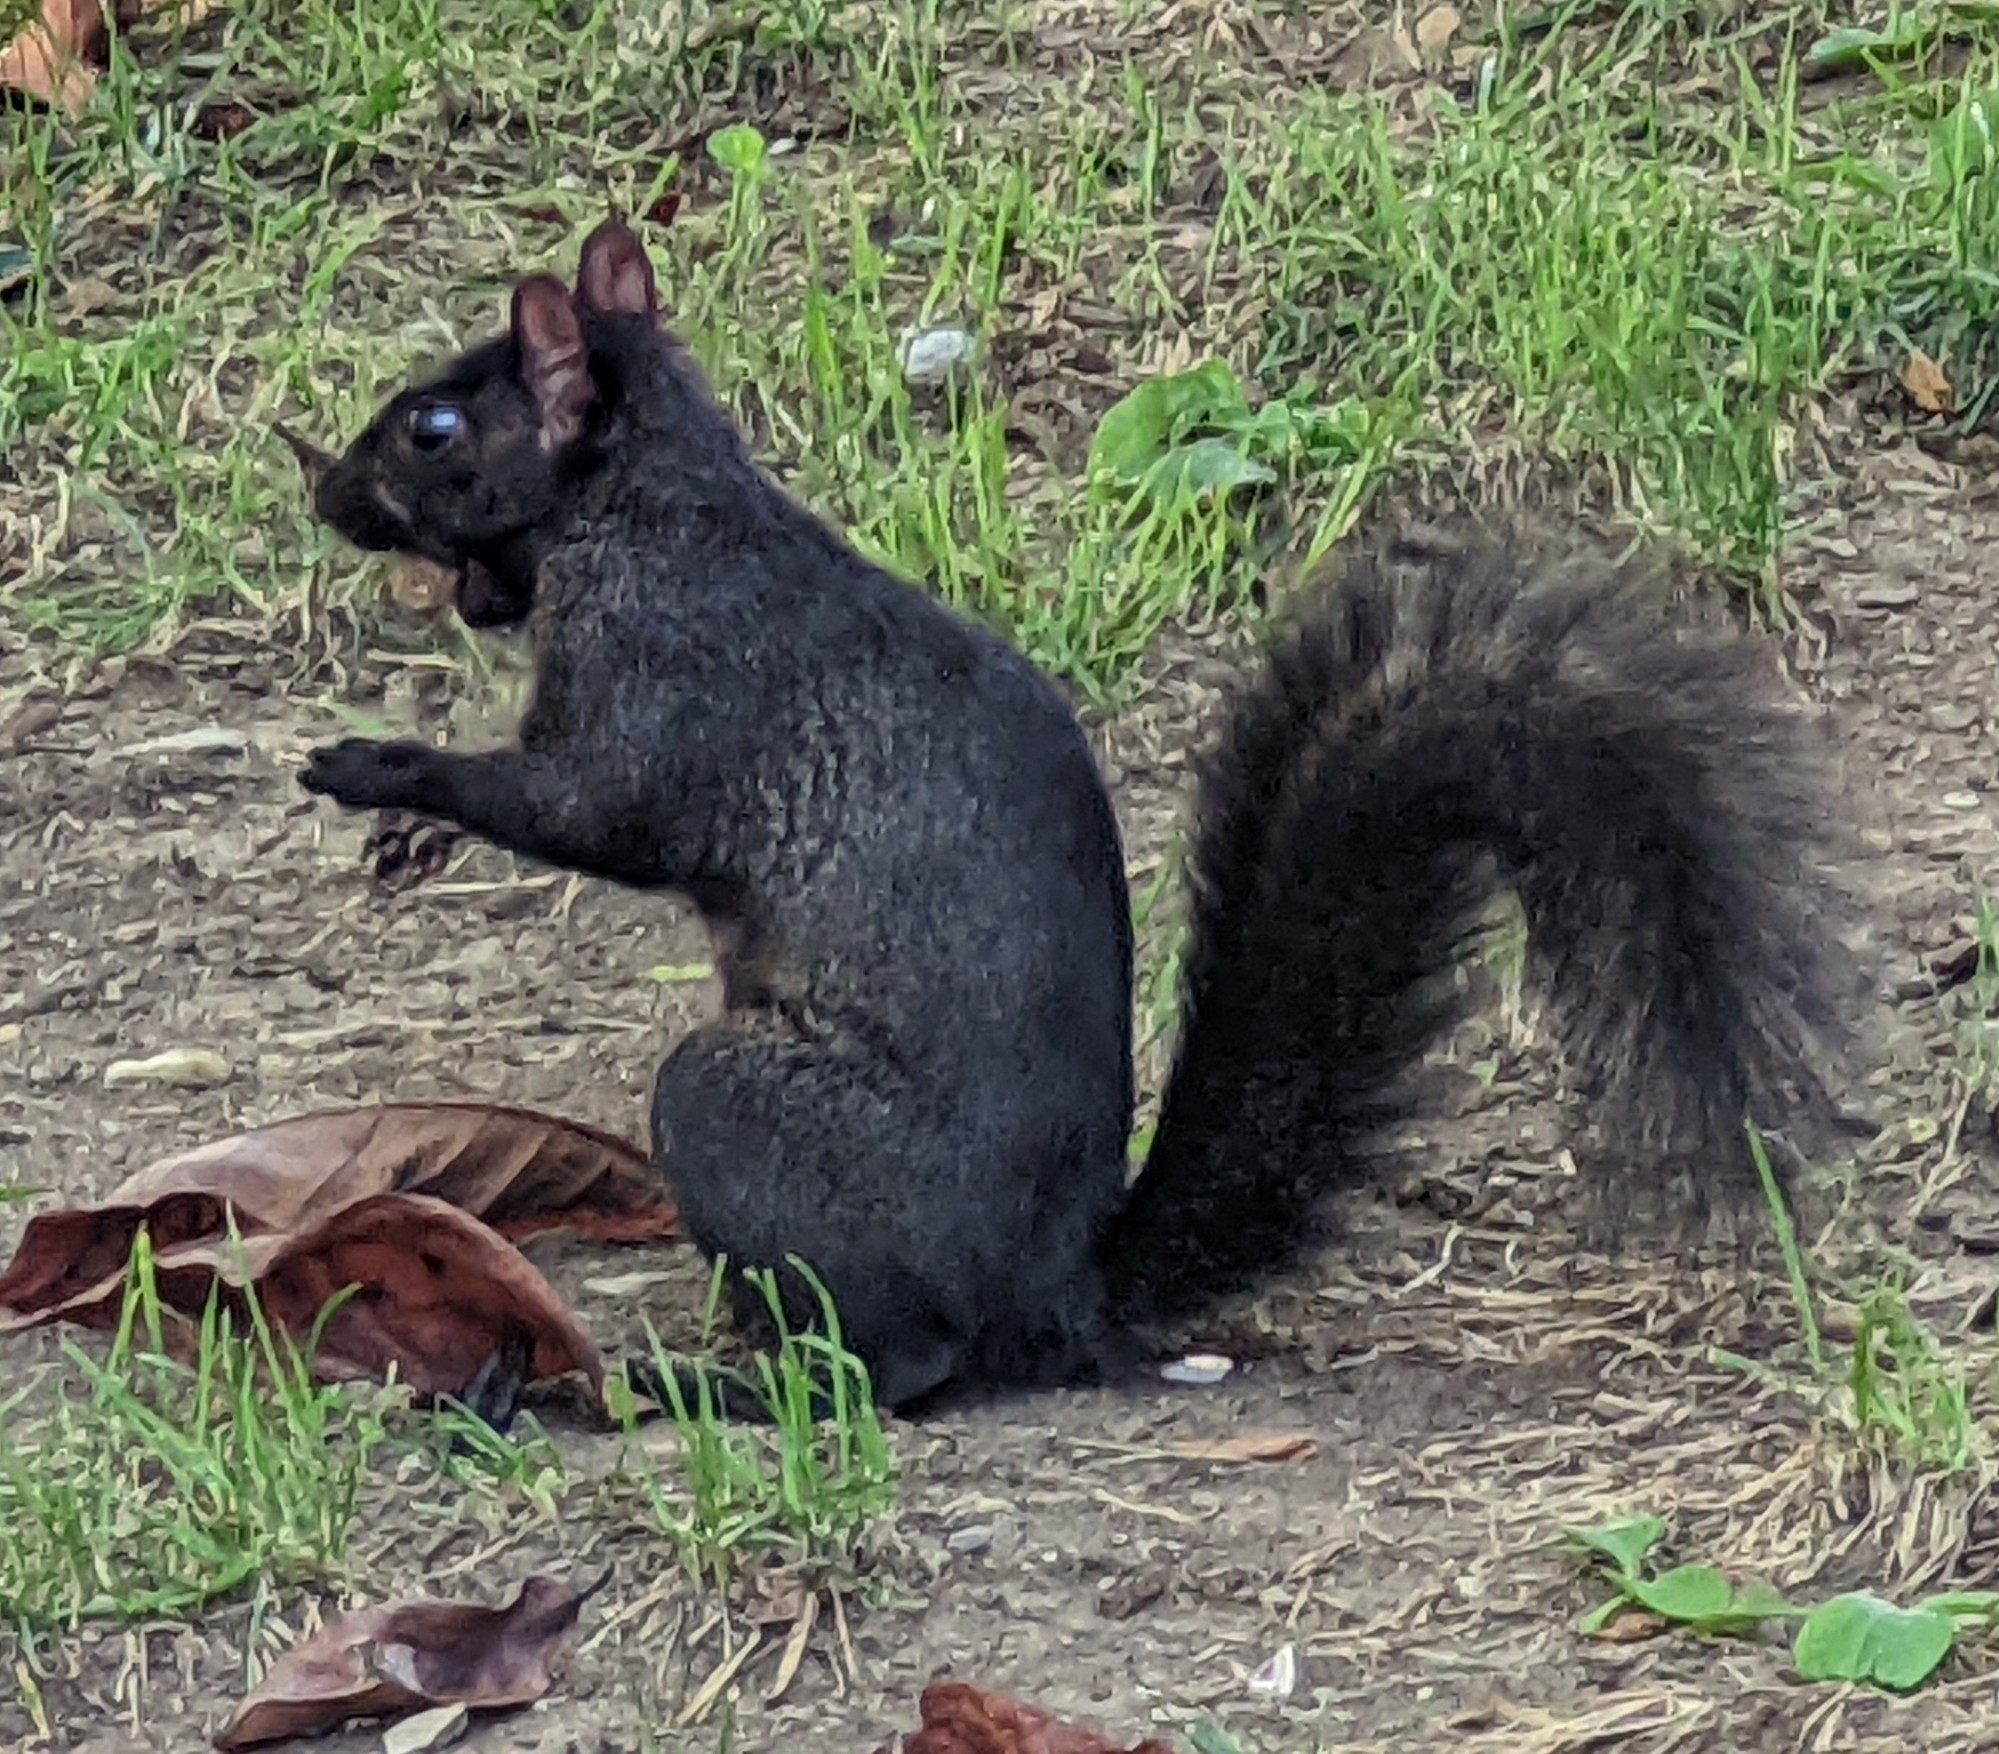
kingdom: Animalia
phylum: Chordata
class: Mammalia
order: Rodentia
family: Sciuridae
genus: Sciurus
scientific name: Sciurus carolinensis
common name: Eastern gray squirrel
